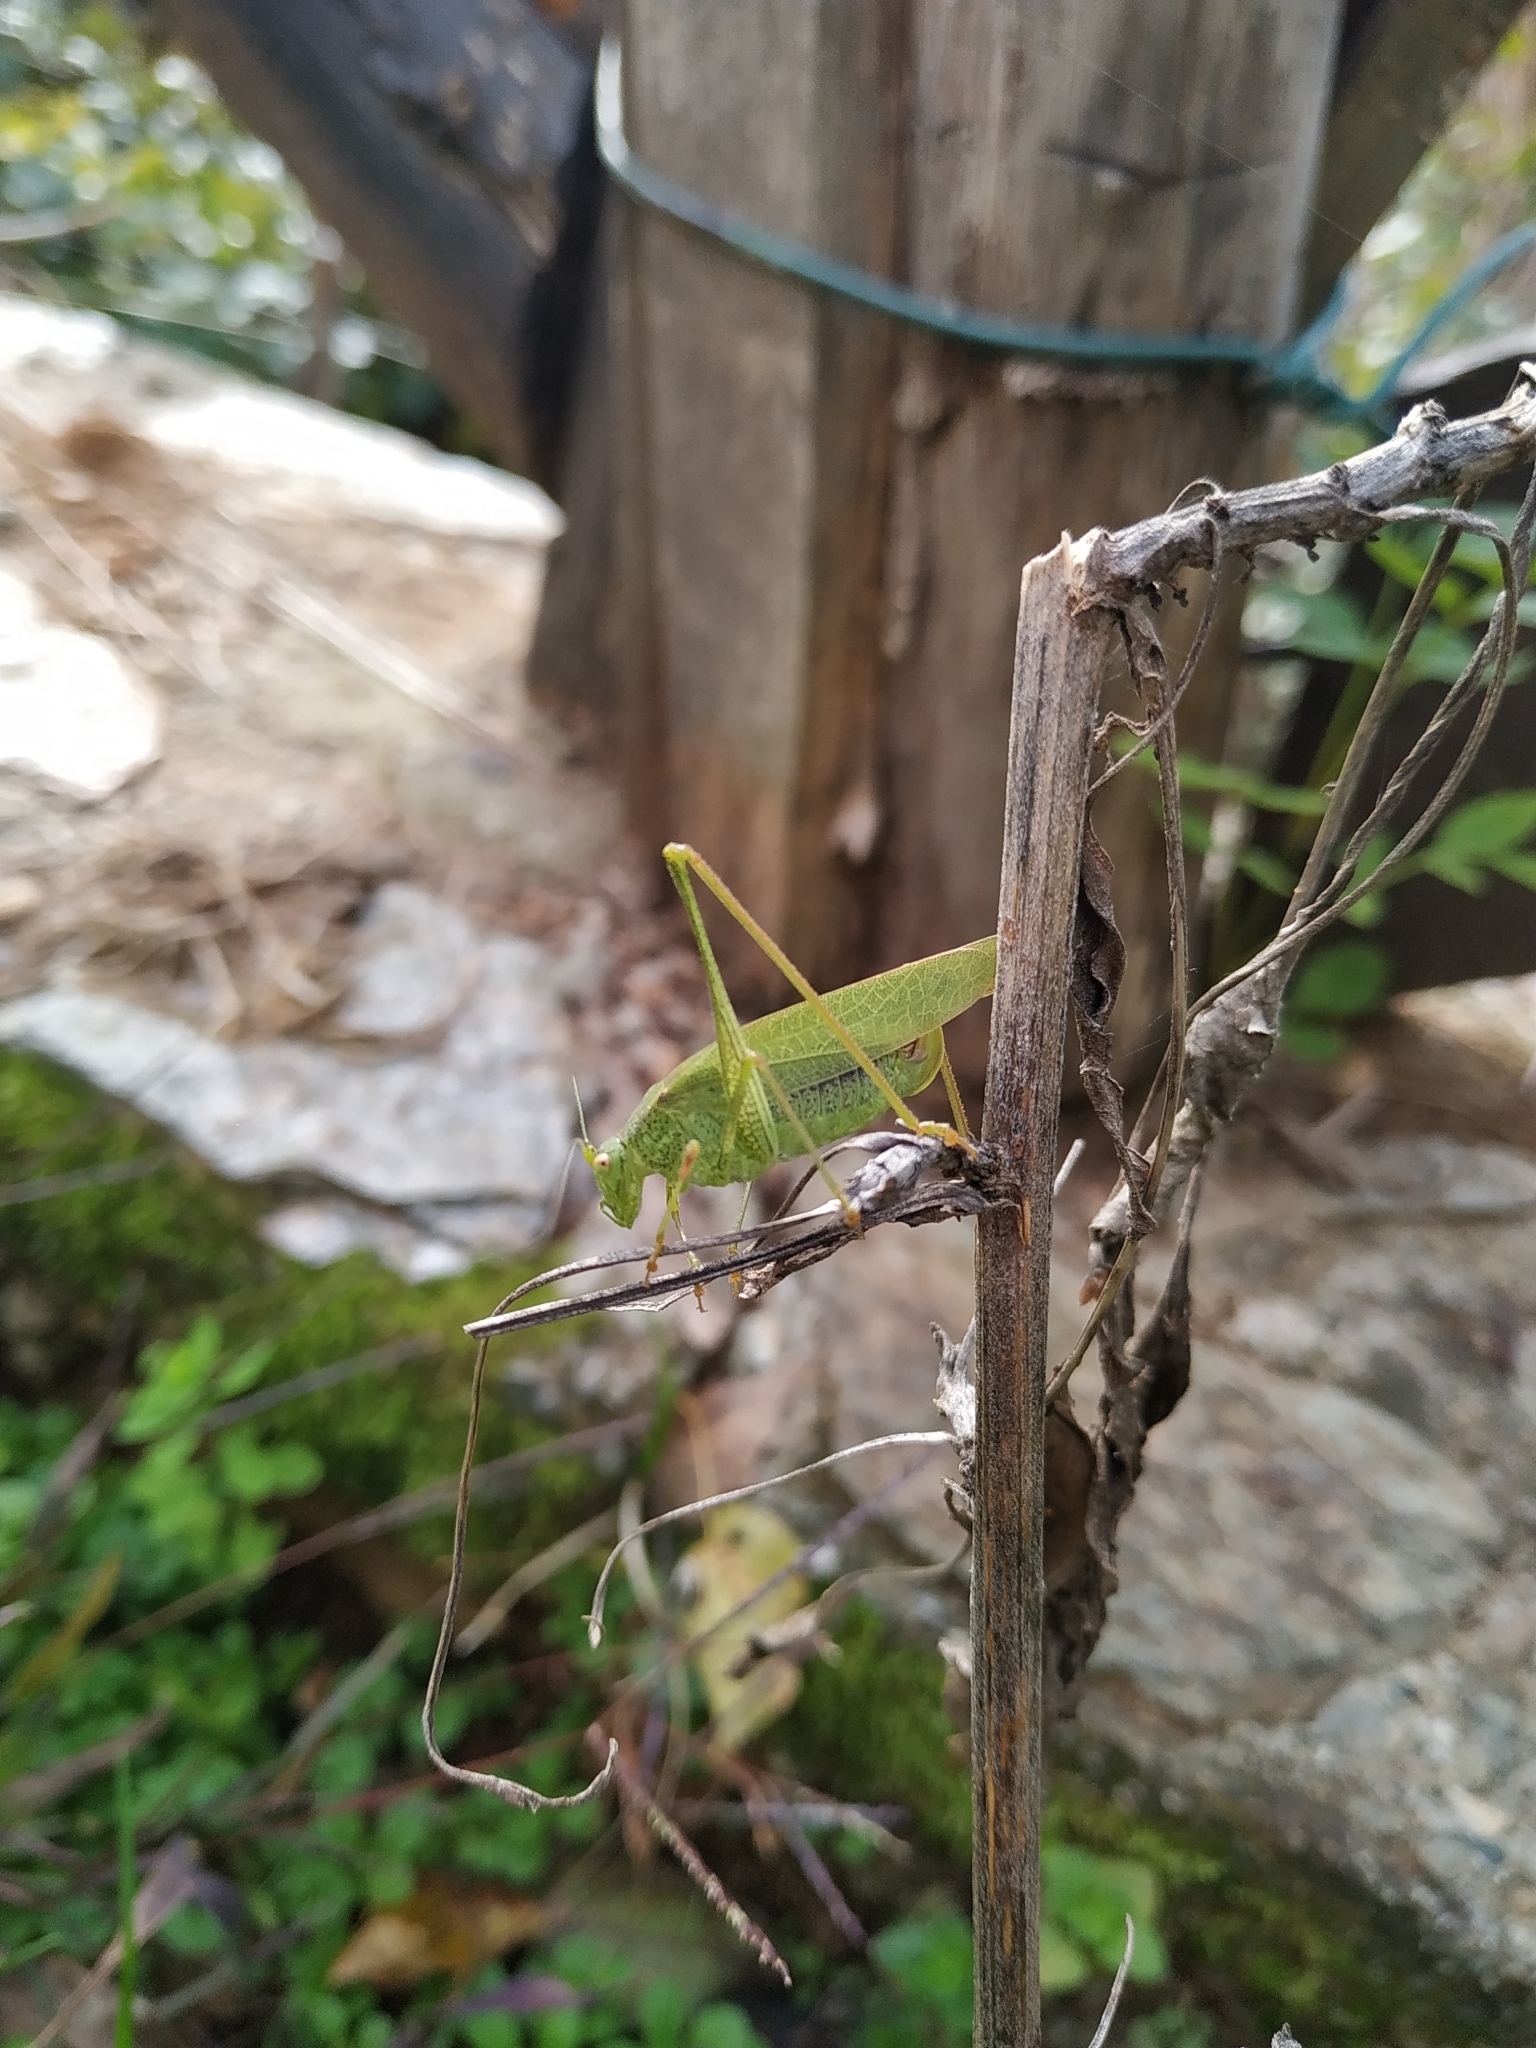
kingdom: Animalia
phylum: Arthropoda
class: Insecta
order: Orthoptera
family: Tettigoniidae
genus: Phaneroptera
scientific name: Phaneroptera nana
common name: Southern sickle bush-cricket
